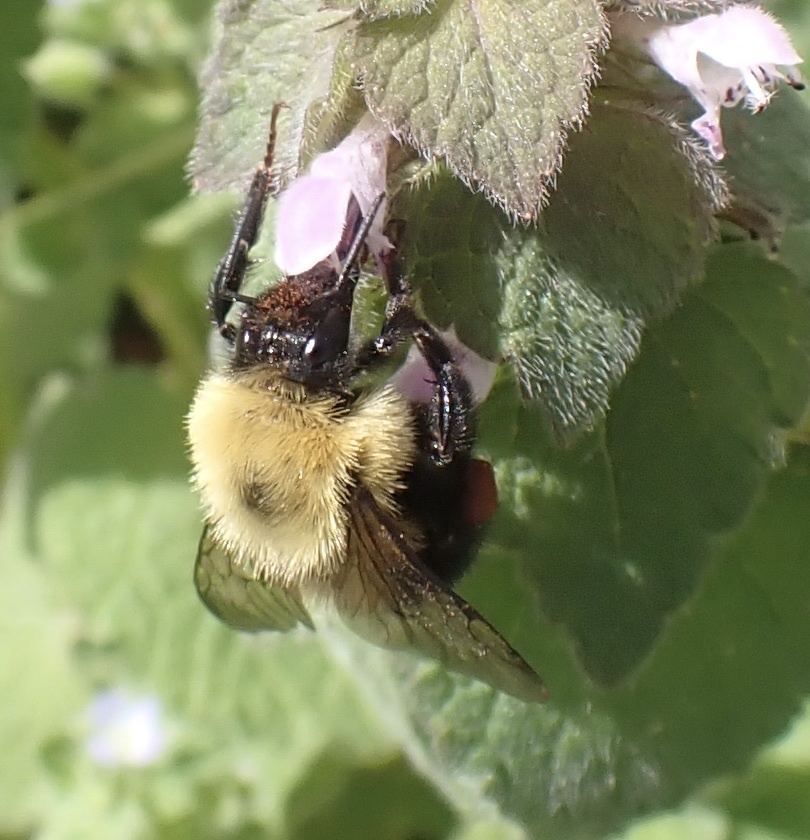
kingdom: Animalia
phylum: Arthropoda
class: Insecta
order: Hymenoptera
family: Apidae
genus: Bombus
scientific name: Bombus bimaculatus
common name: Two-spotted bumble bee
